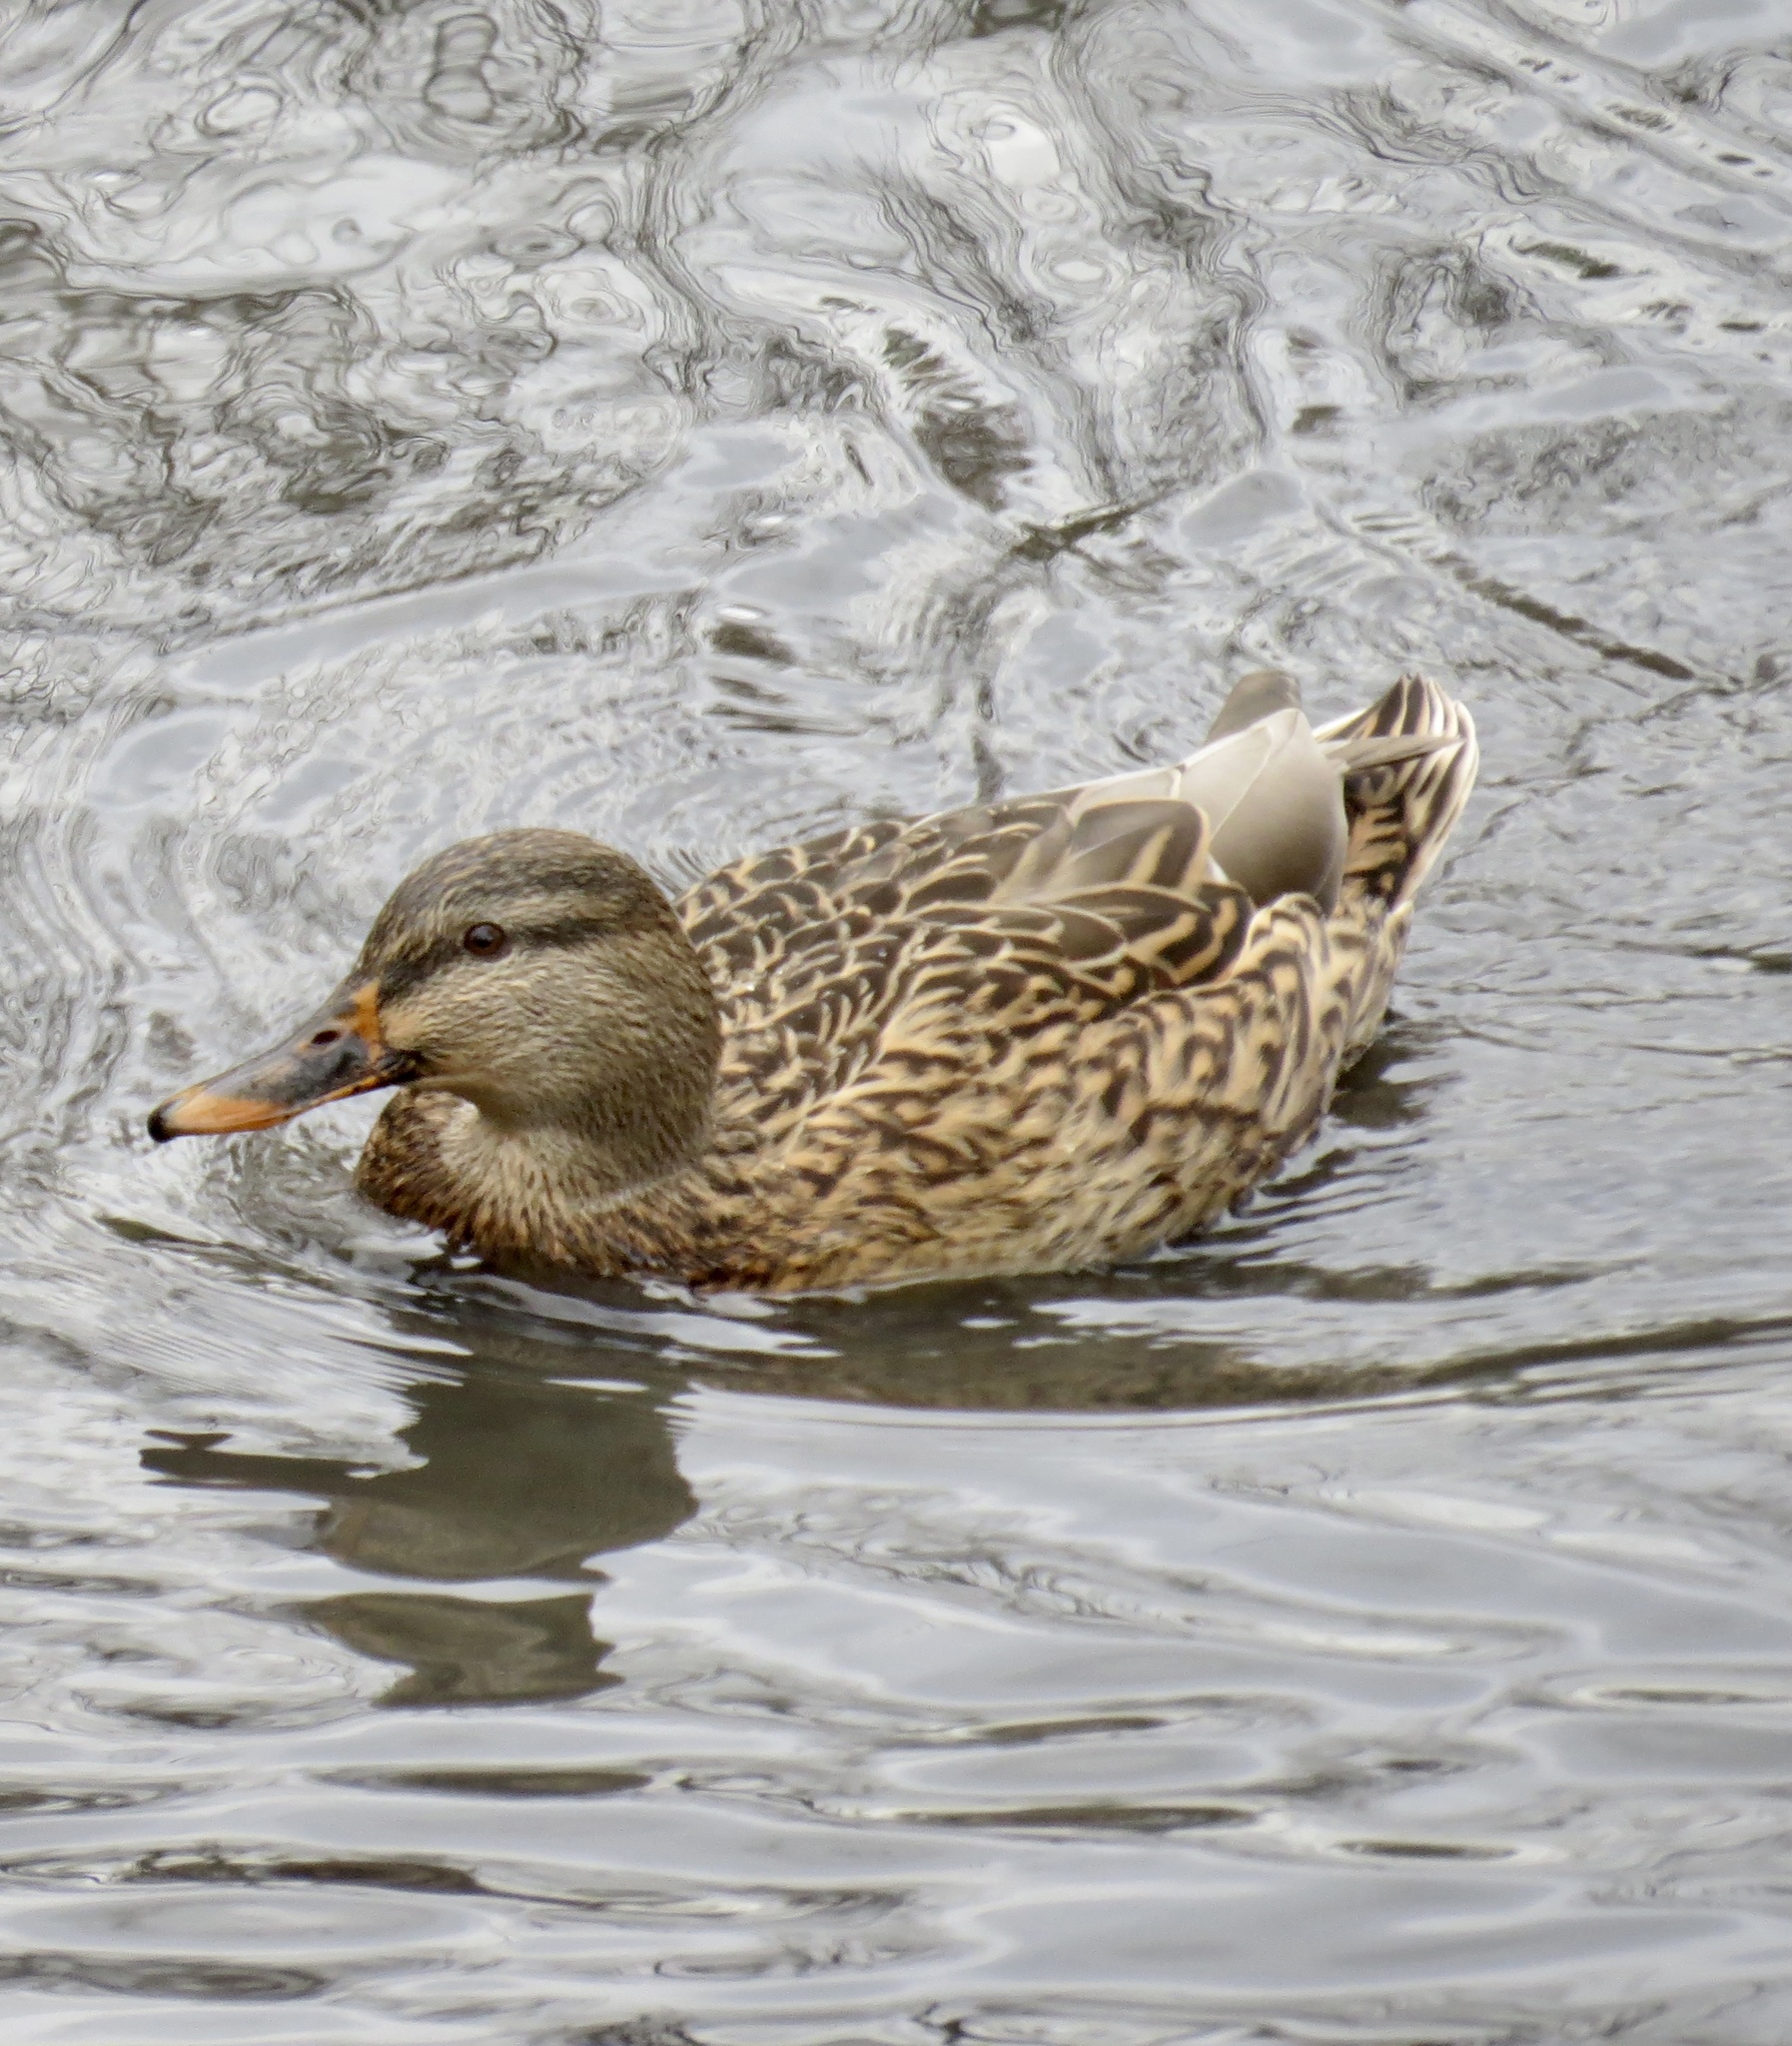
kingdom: Animalia
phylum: Chordata
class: Aves
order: Anseriformes
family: Anatidae
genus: Anas
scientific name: Anas platyrhynchos
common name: Mallard
